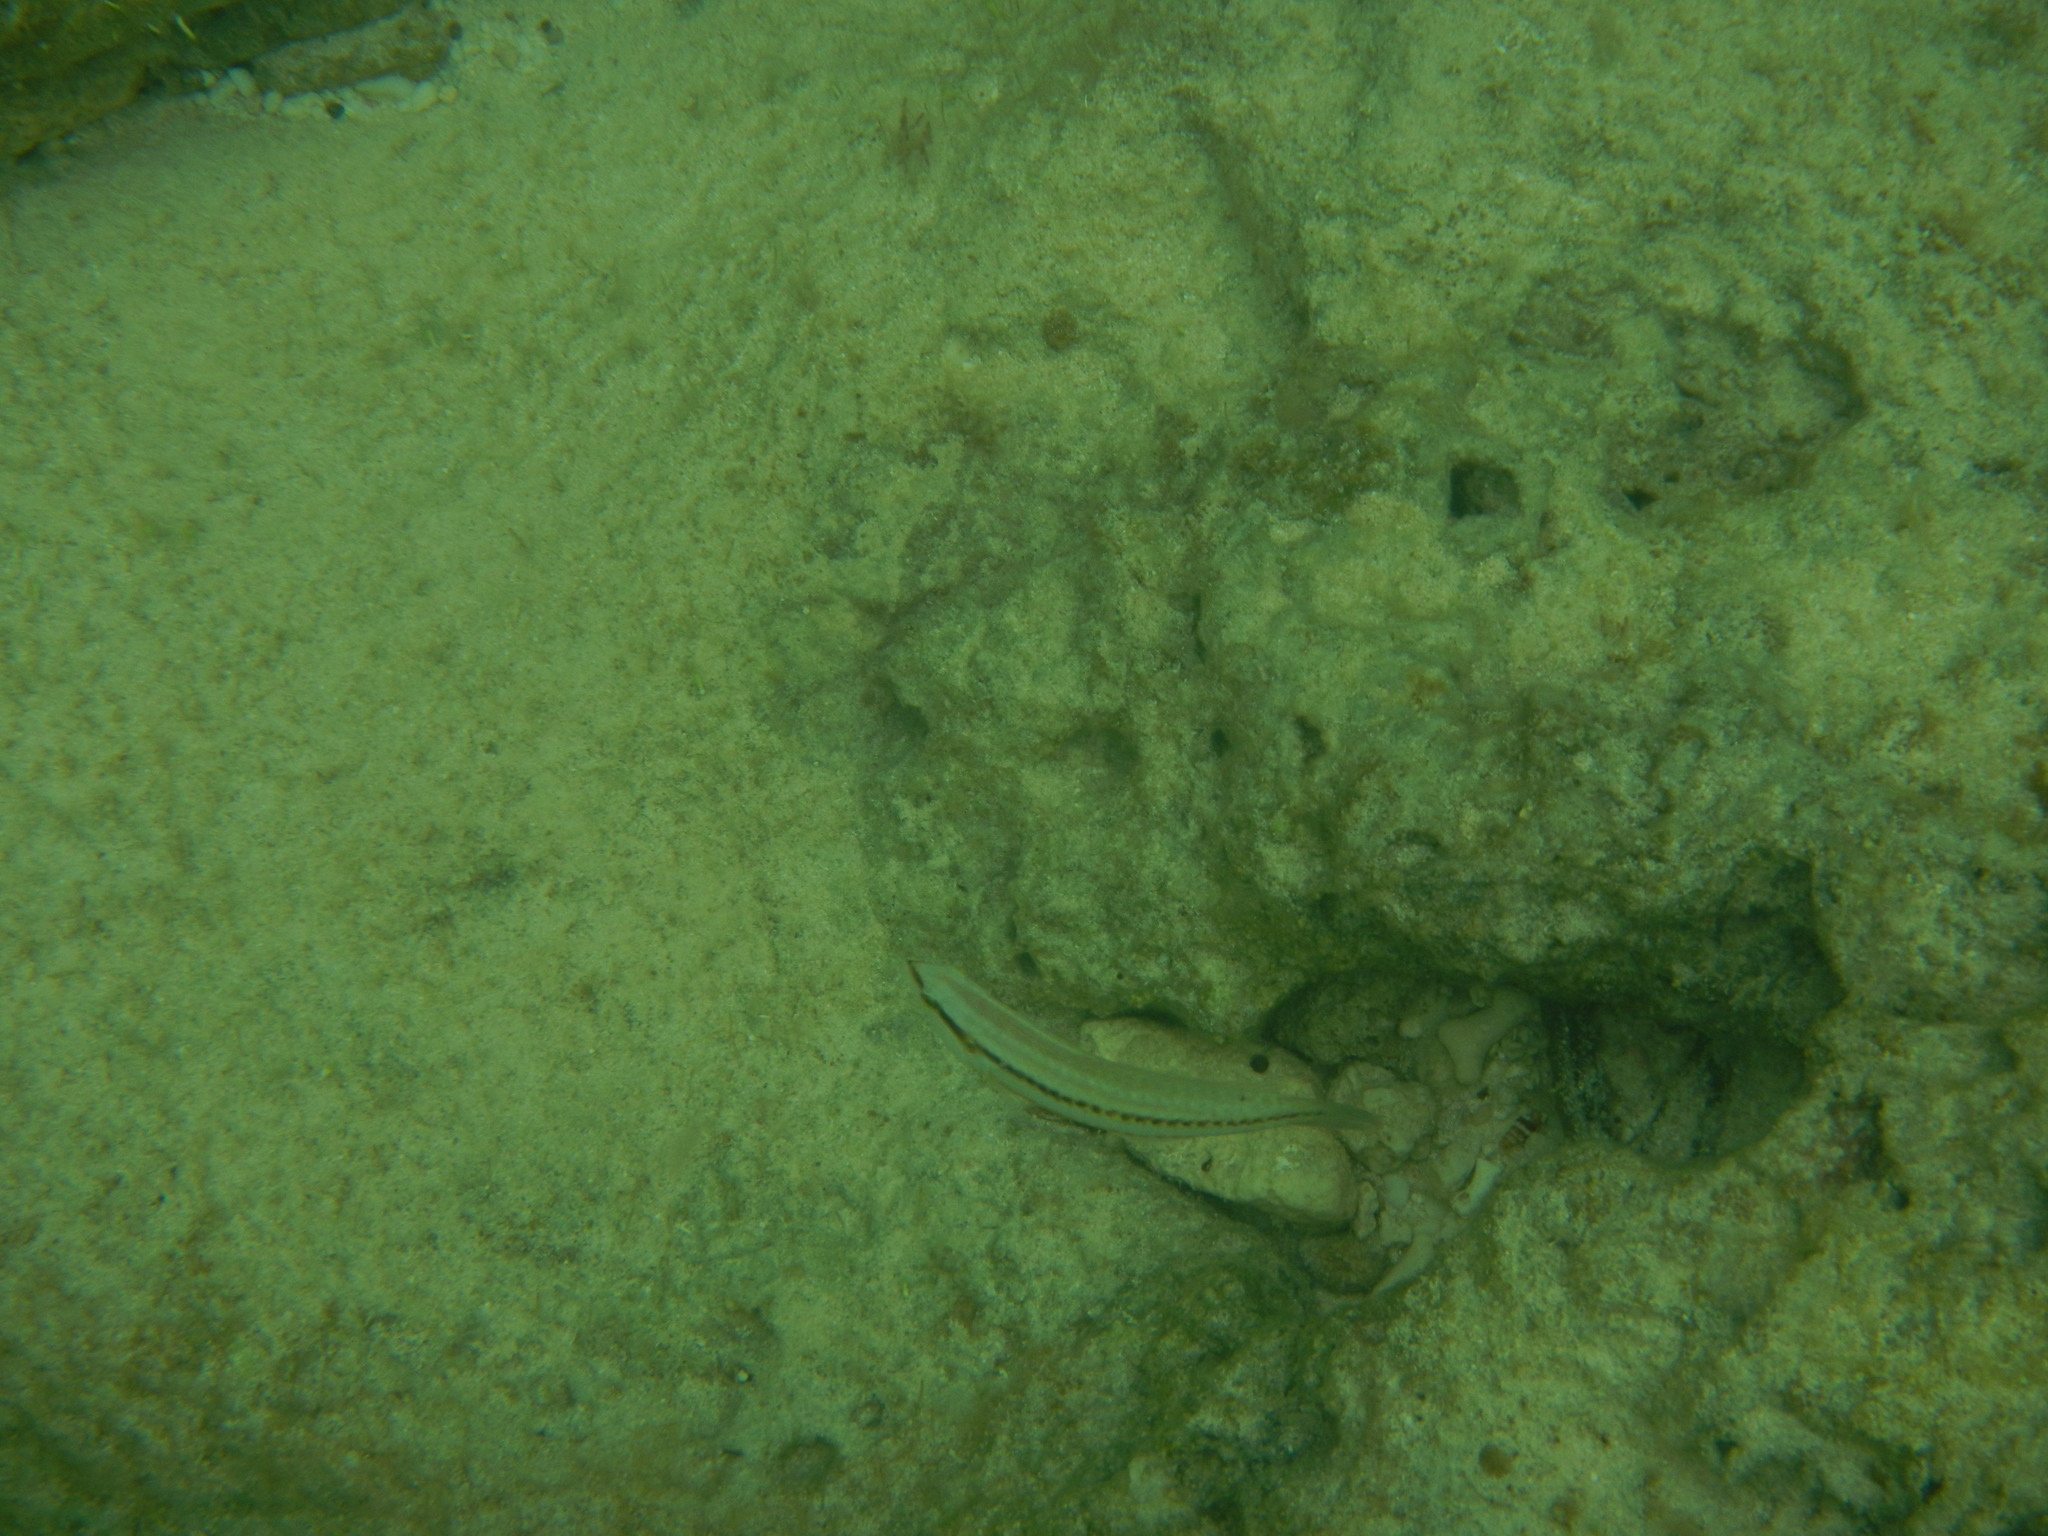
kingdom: Animalia
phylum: Chordata
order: Perciformes
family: Labridae
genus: Halichoeres
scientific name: Halichoeres bivittatus
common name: Slippery dick
